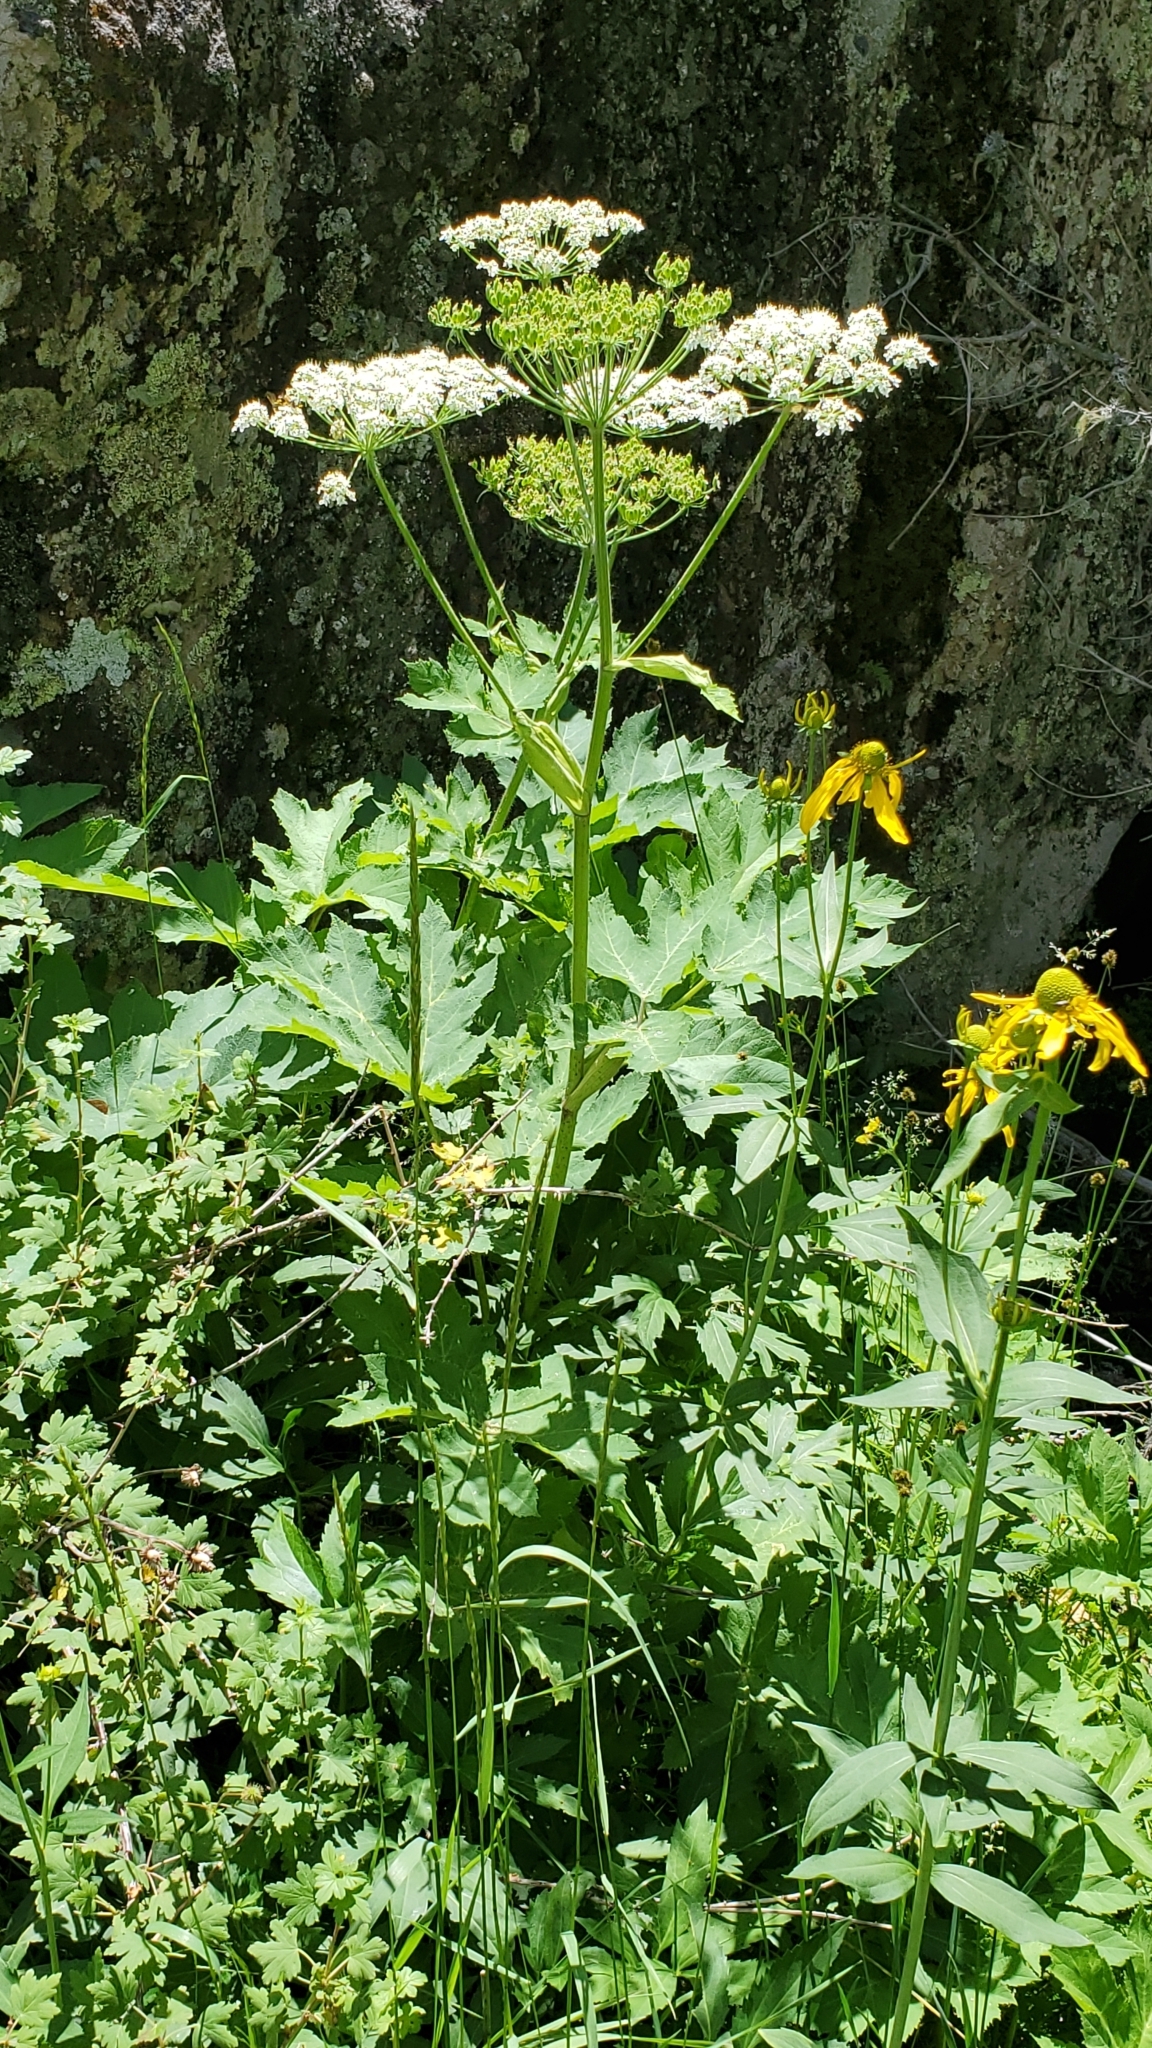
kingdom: Plantae
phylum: Tracheophyta
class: Magnoliopsida
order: Apiales
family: Apiaceae
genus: Heracleum
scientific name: Heracleum maximum
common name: American cow parsnip
